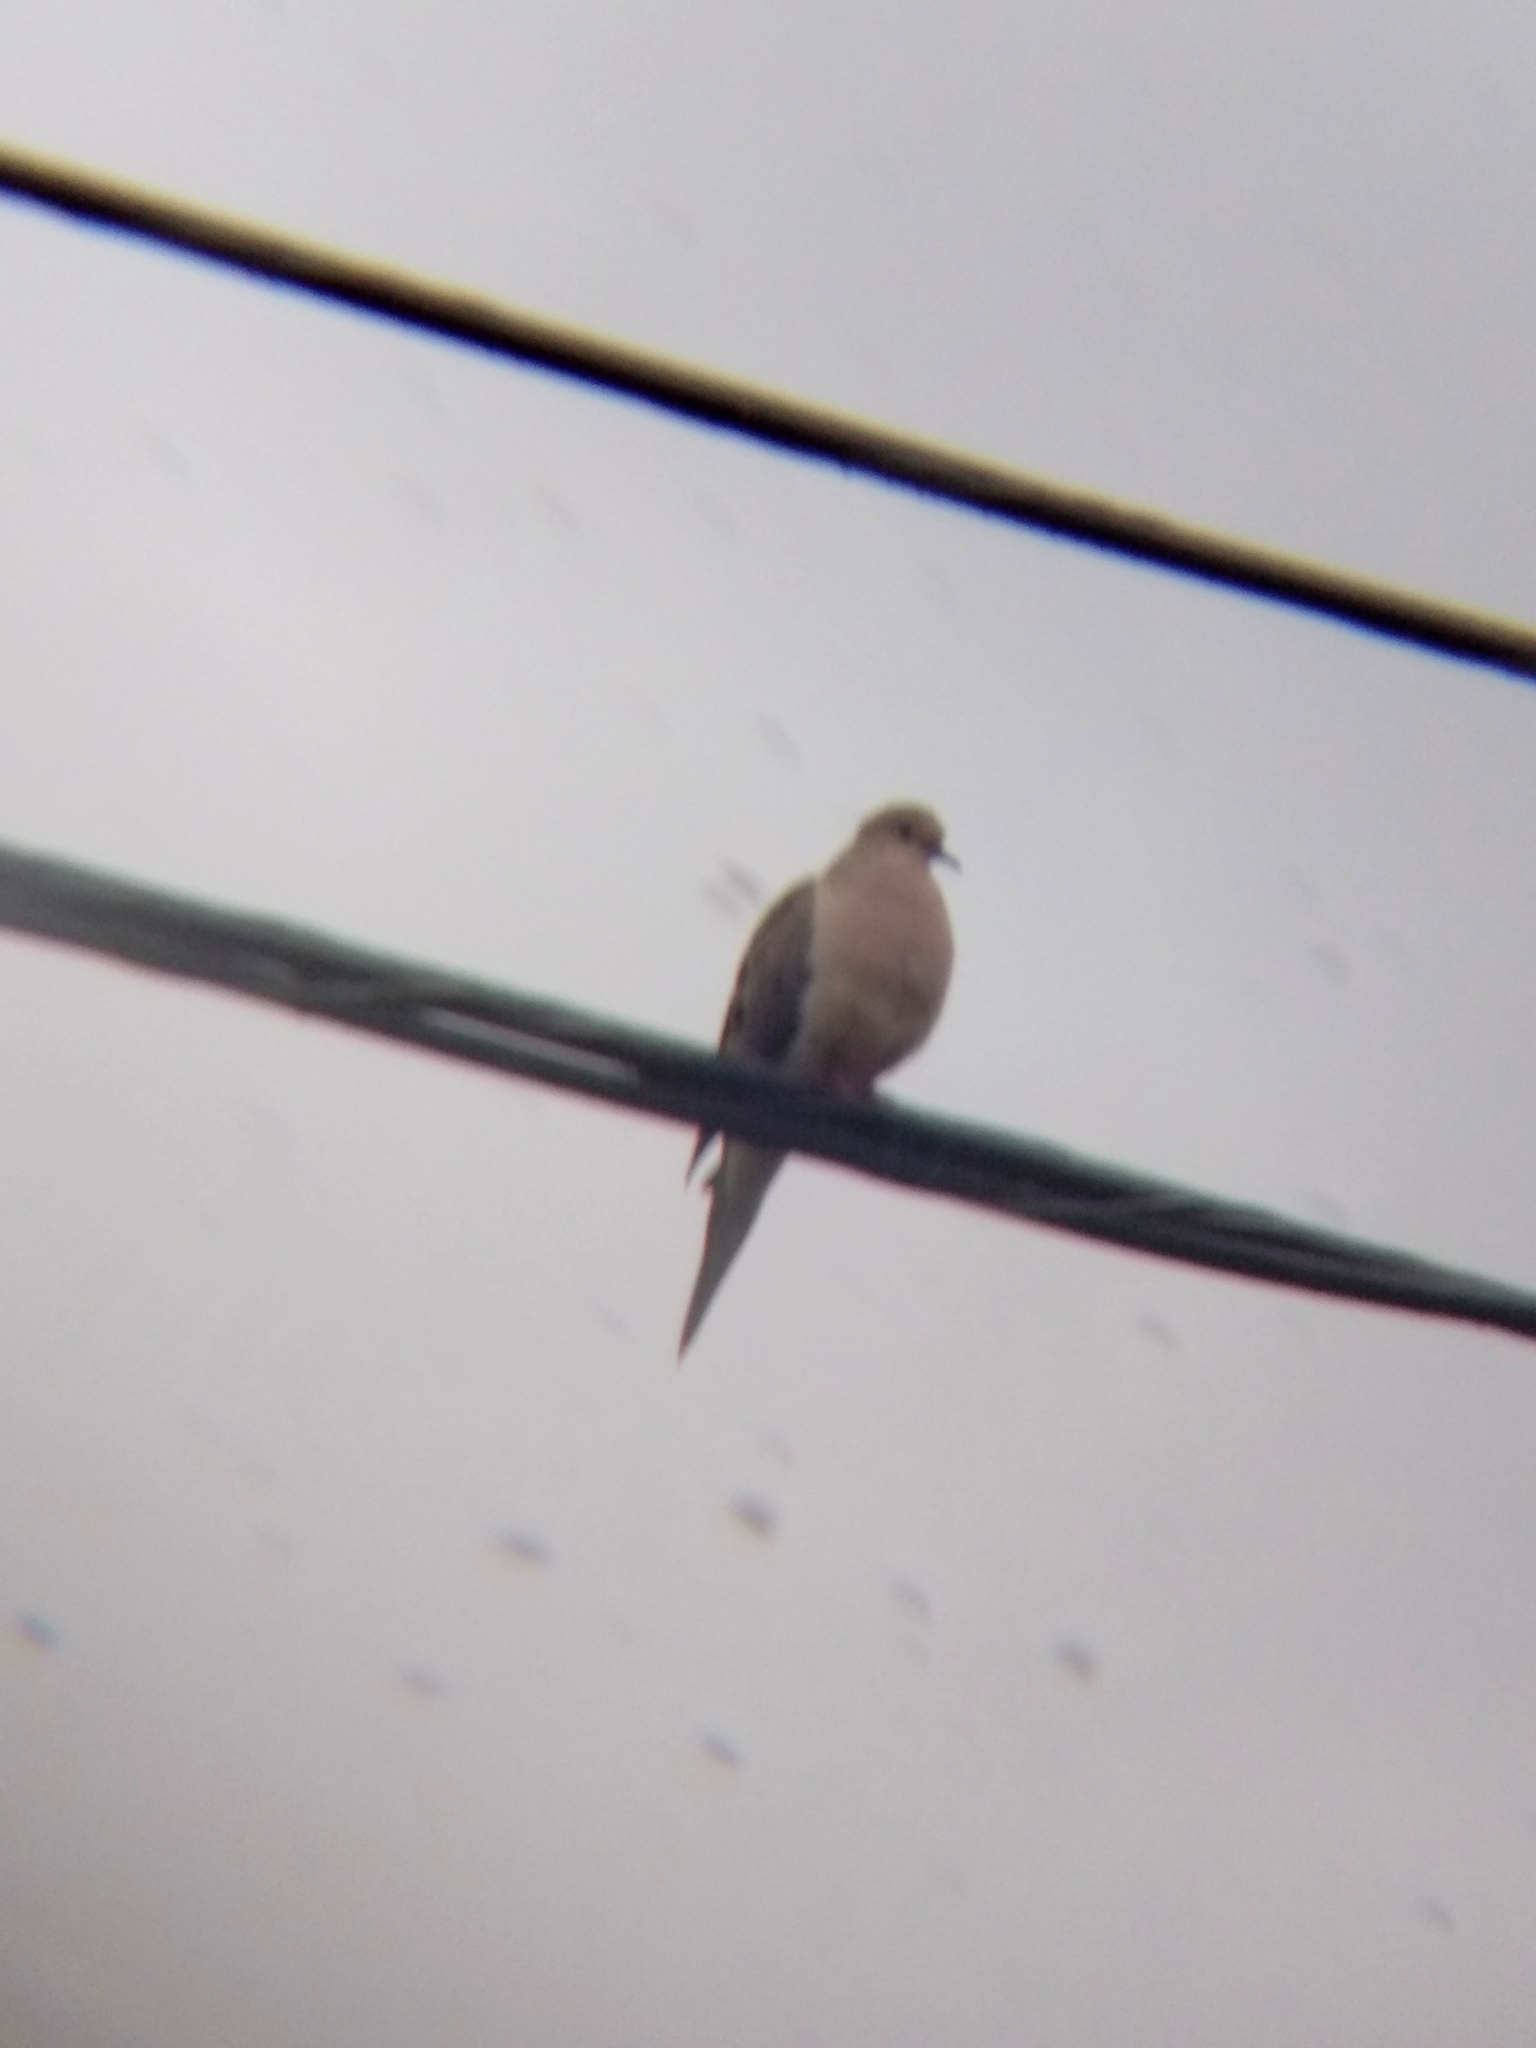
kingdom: Animalia
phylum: Chordata
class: Aves
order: Columbiformes
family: Columbidae
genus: Zenaida
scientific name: Zenaida macroura
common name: Mourning dove
